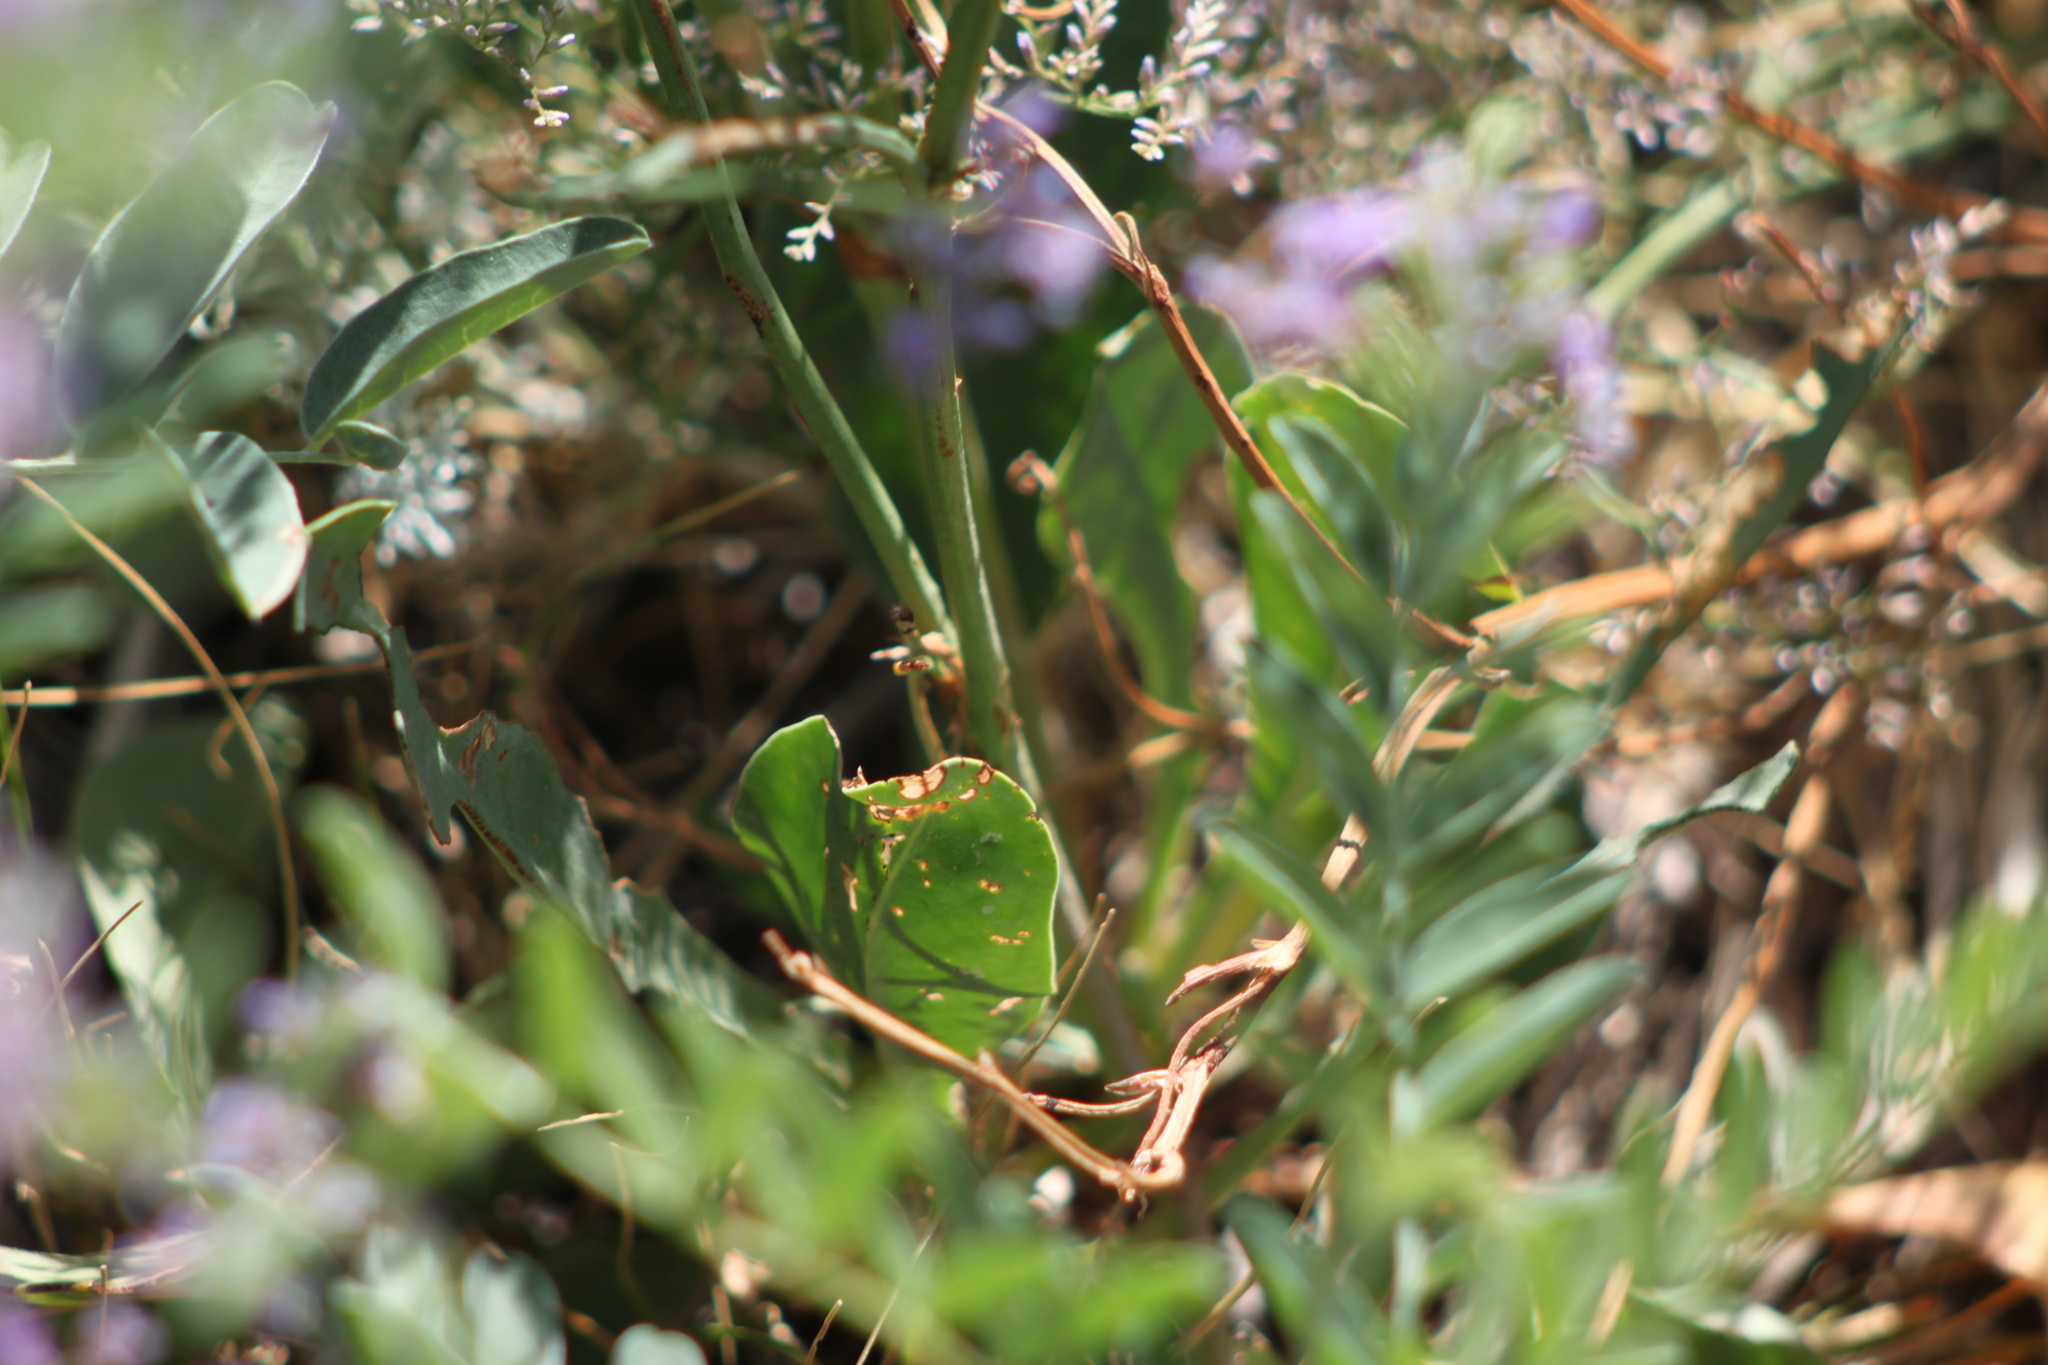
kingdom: Plantae
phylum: Tracheophyta
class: Magnoliopsida
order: Caryophyllales
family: Plumbaginaceae
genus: Limonium
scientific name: Limonium gmelini
